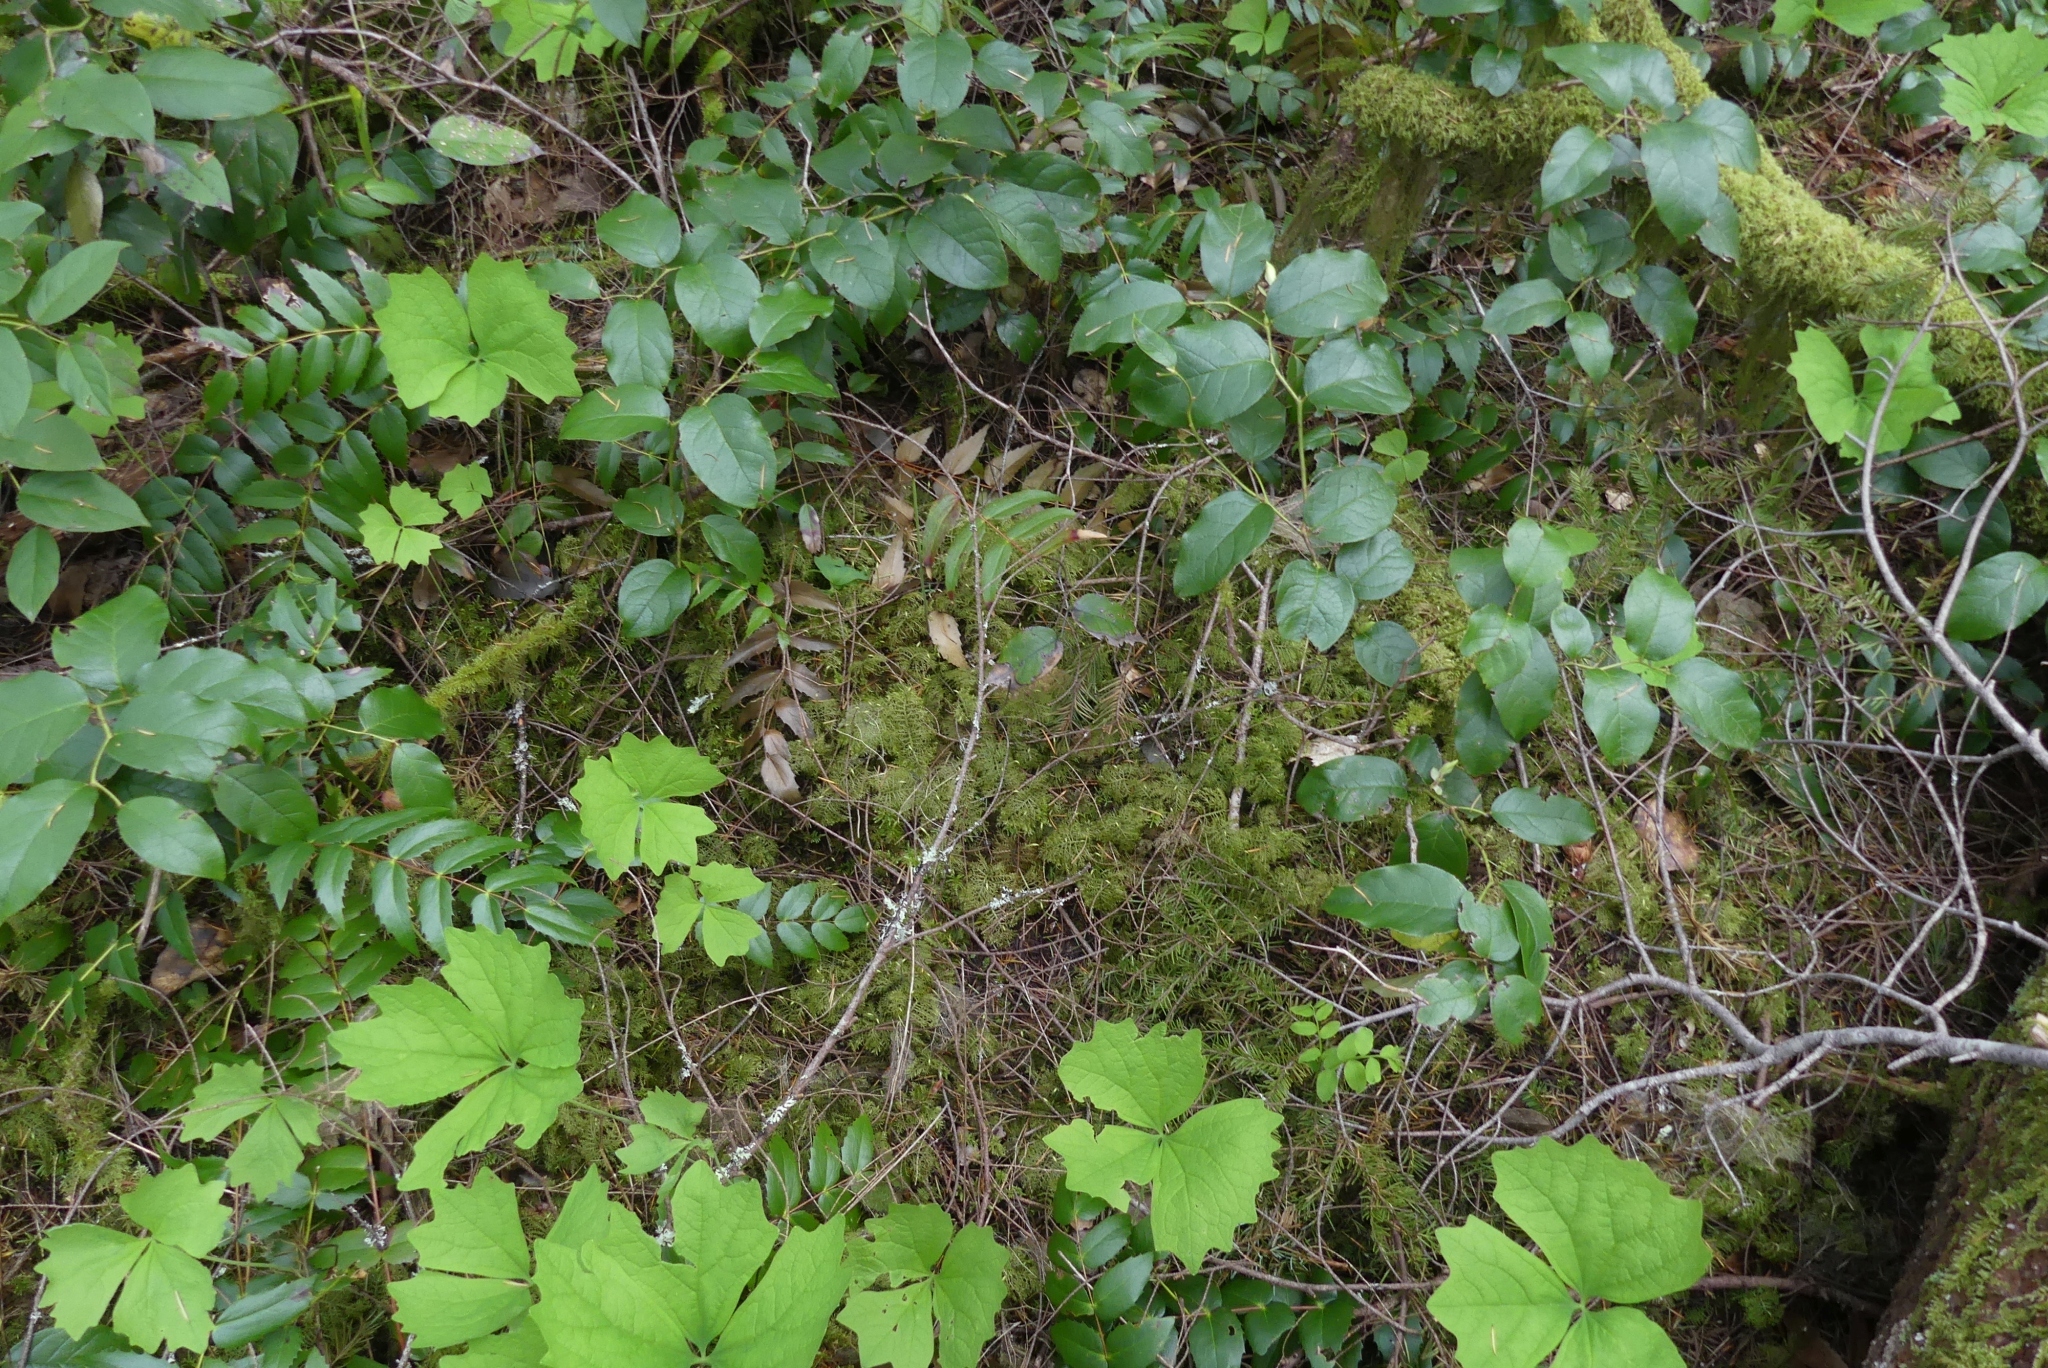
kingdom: Plantae
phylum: Bryophyta
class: Bryopsida
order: Hypnales
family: Hylocomiaceae
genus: Hylocomium
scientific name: Hylocomium splendens
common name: Stairstep moss
